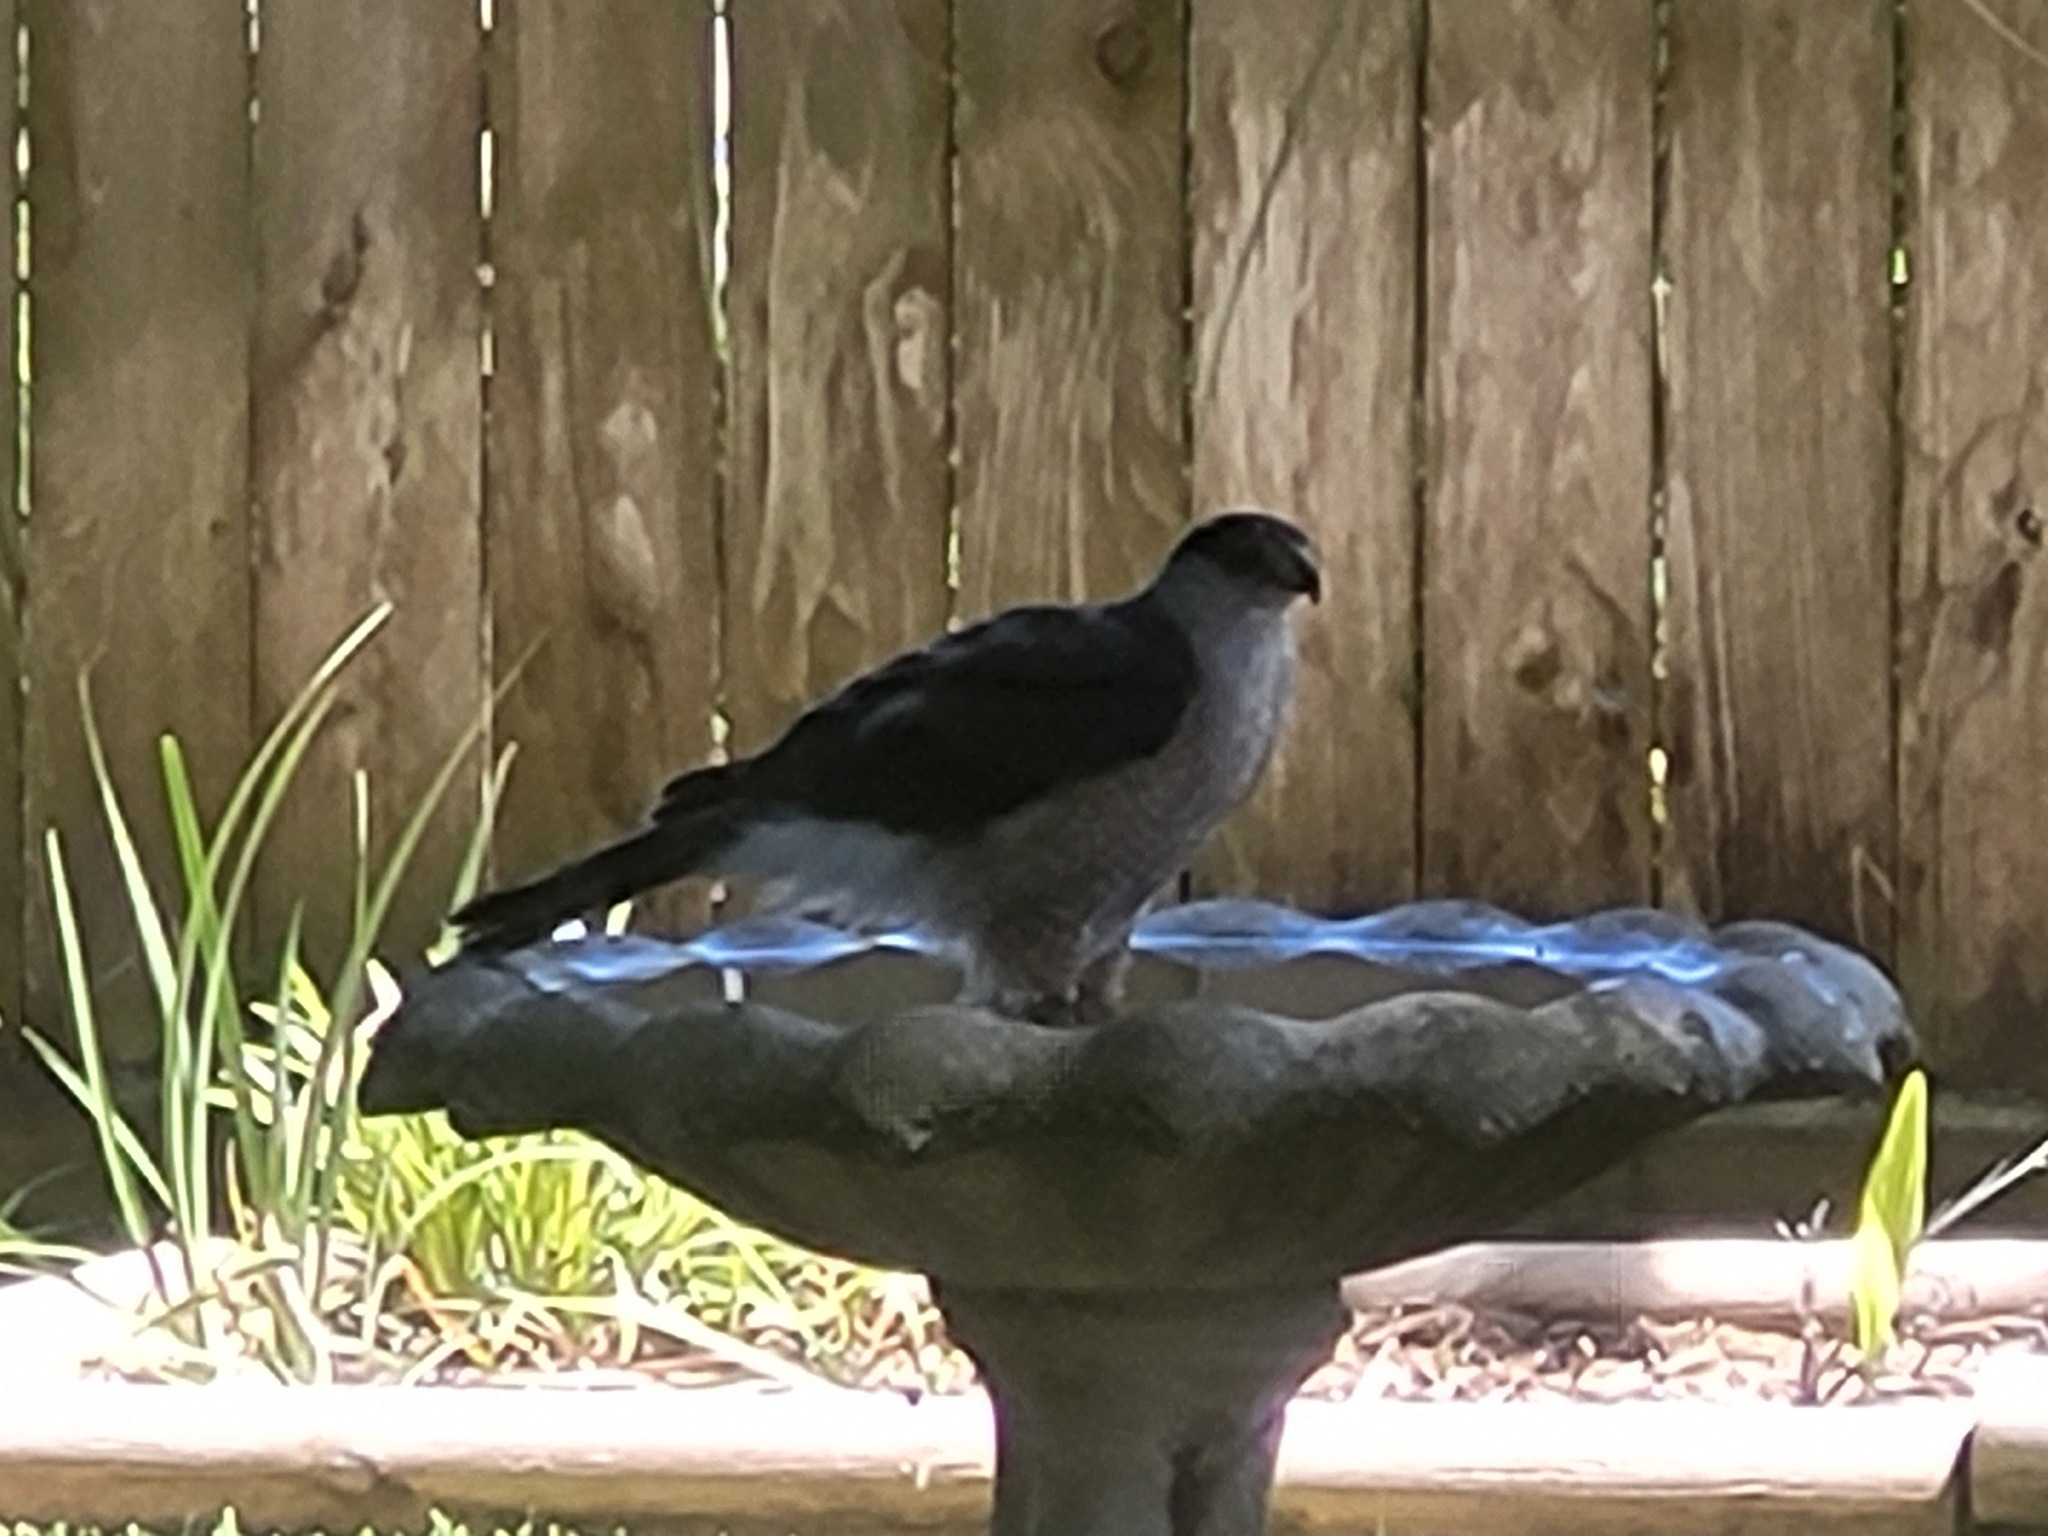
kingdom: Animalia
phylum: Chordata
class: Aves
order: Accipitriformes
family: Accipitridae
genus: Accipiter
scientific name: Accipiter cooperii
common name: Cooper's hawk
